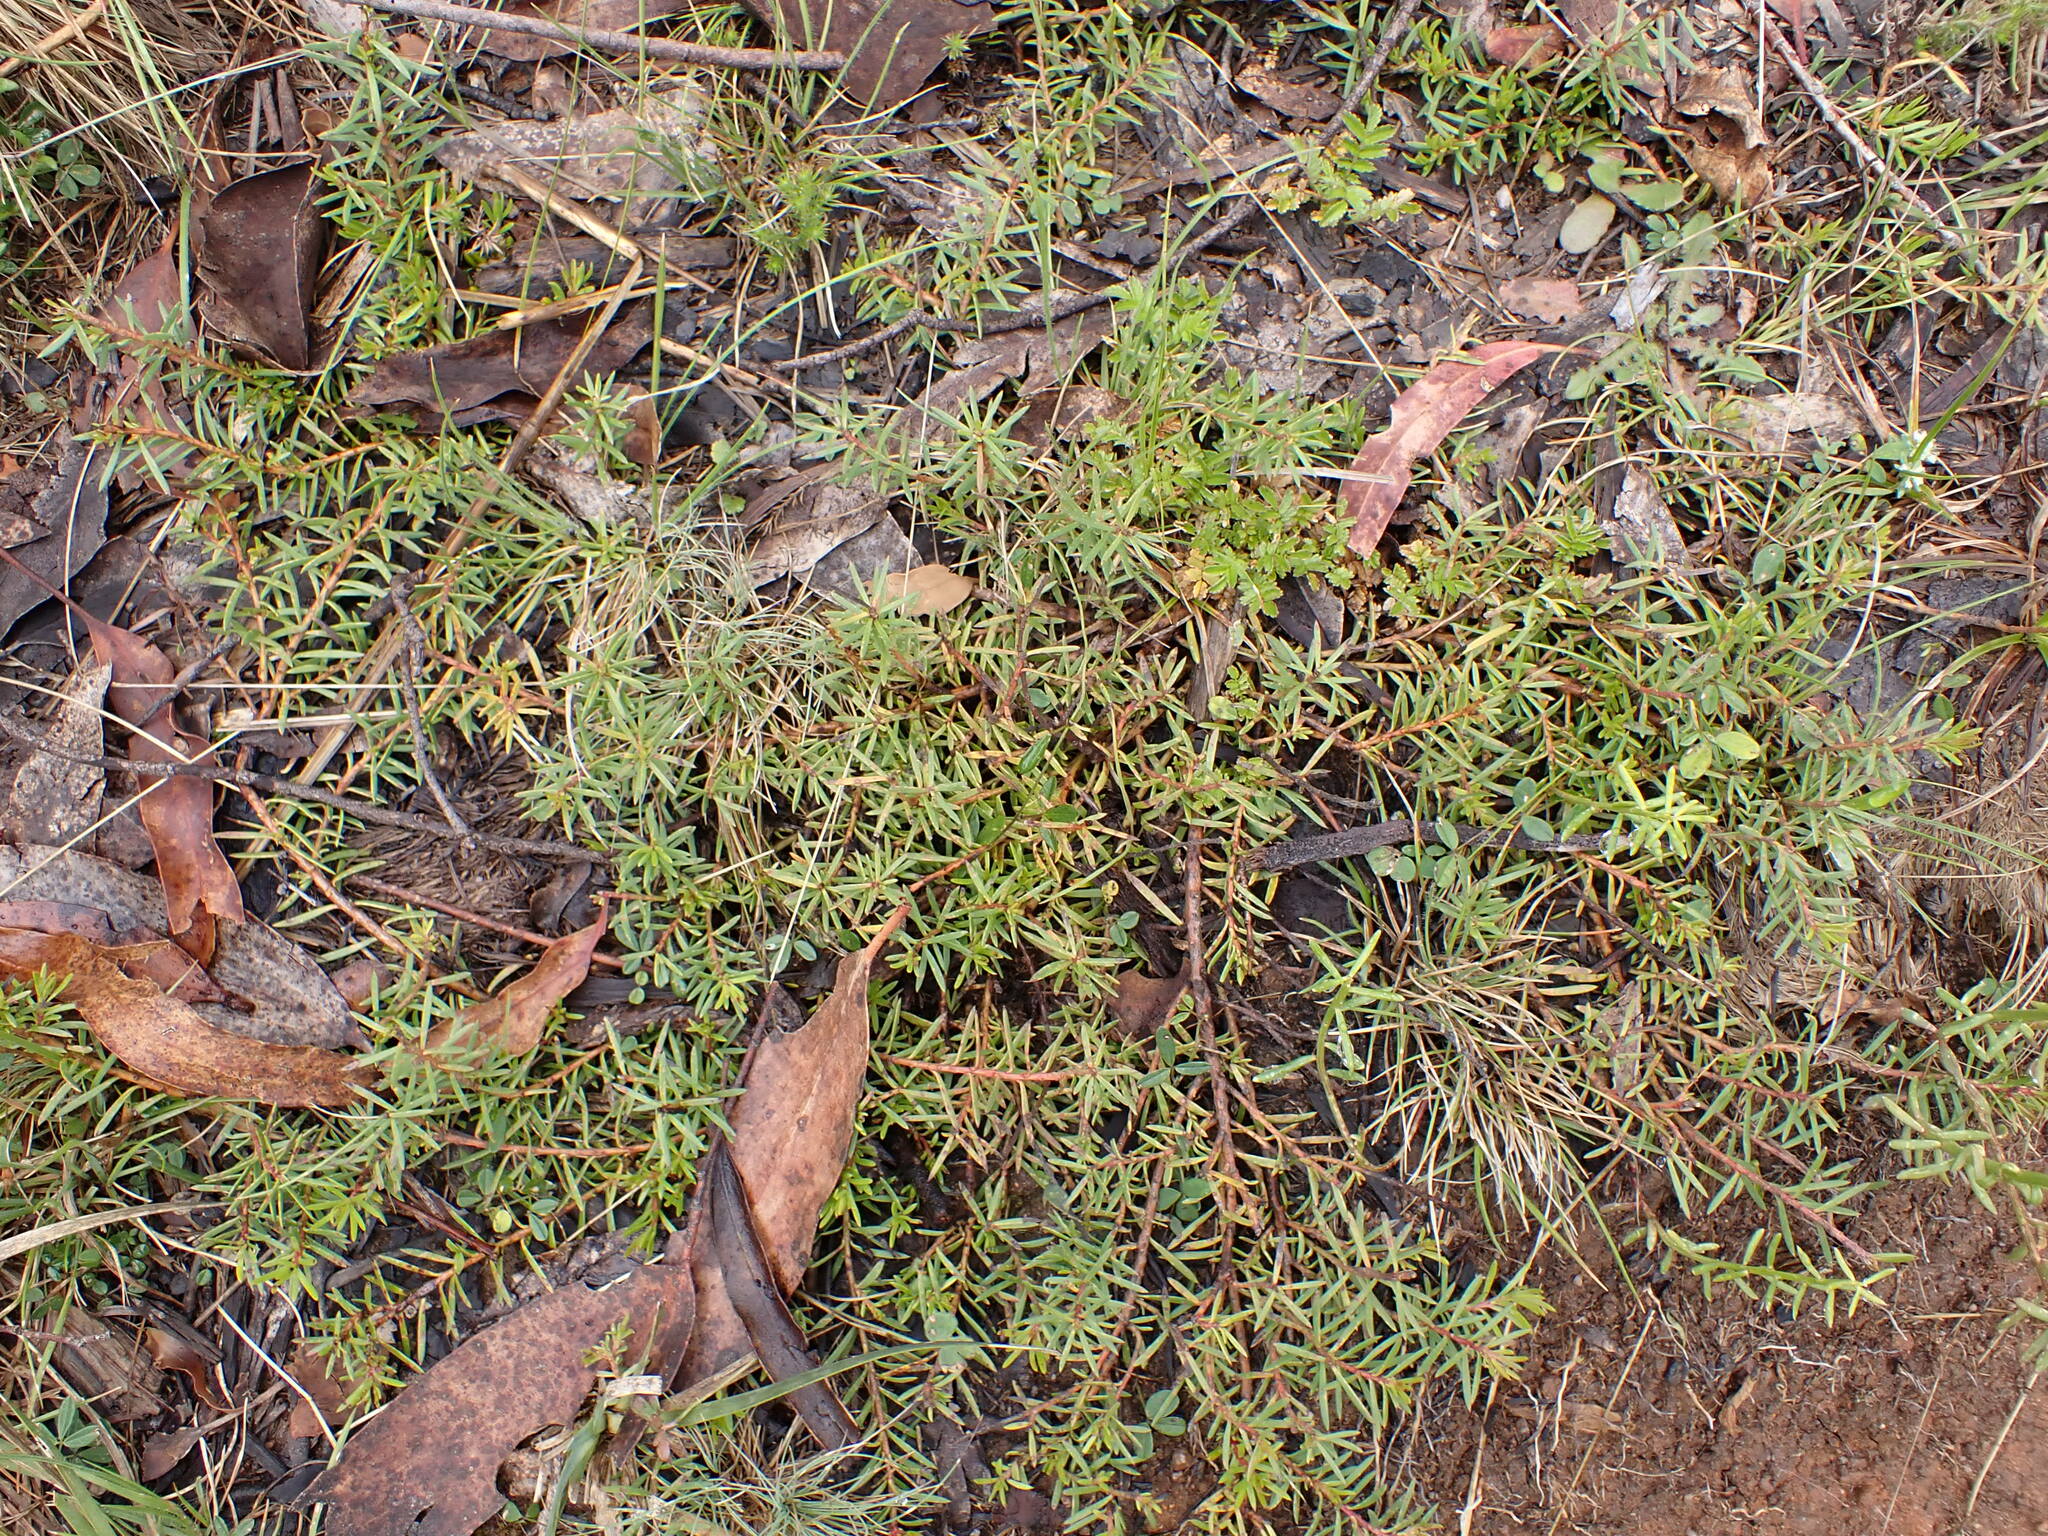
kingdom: Plantae
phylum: Tracheophyta
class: Magnoliopsida
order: Proteales
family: Proteaceae
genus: Persoonia
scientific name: Persoonia chamaepeuce
